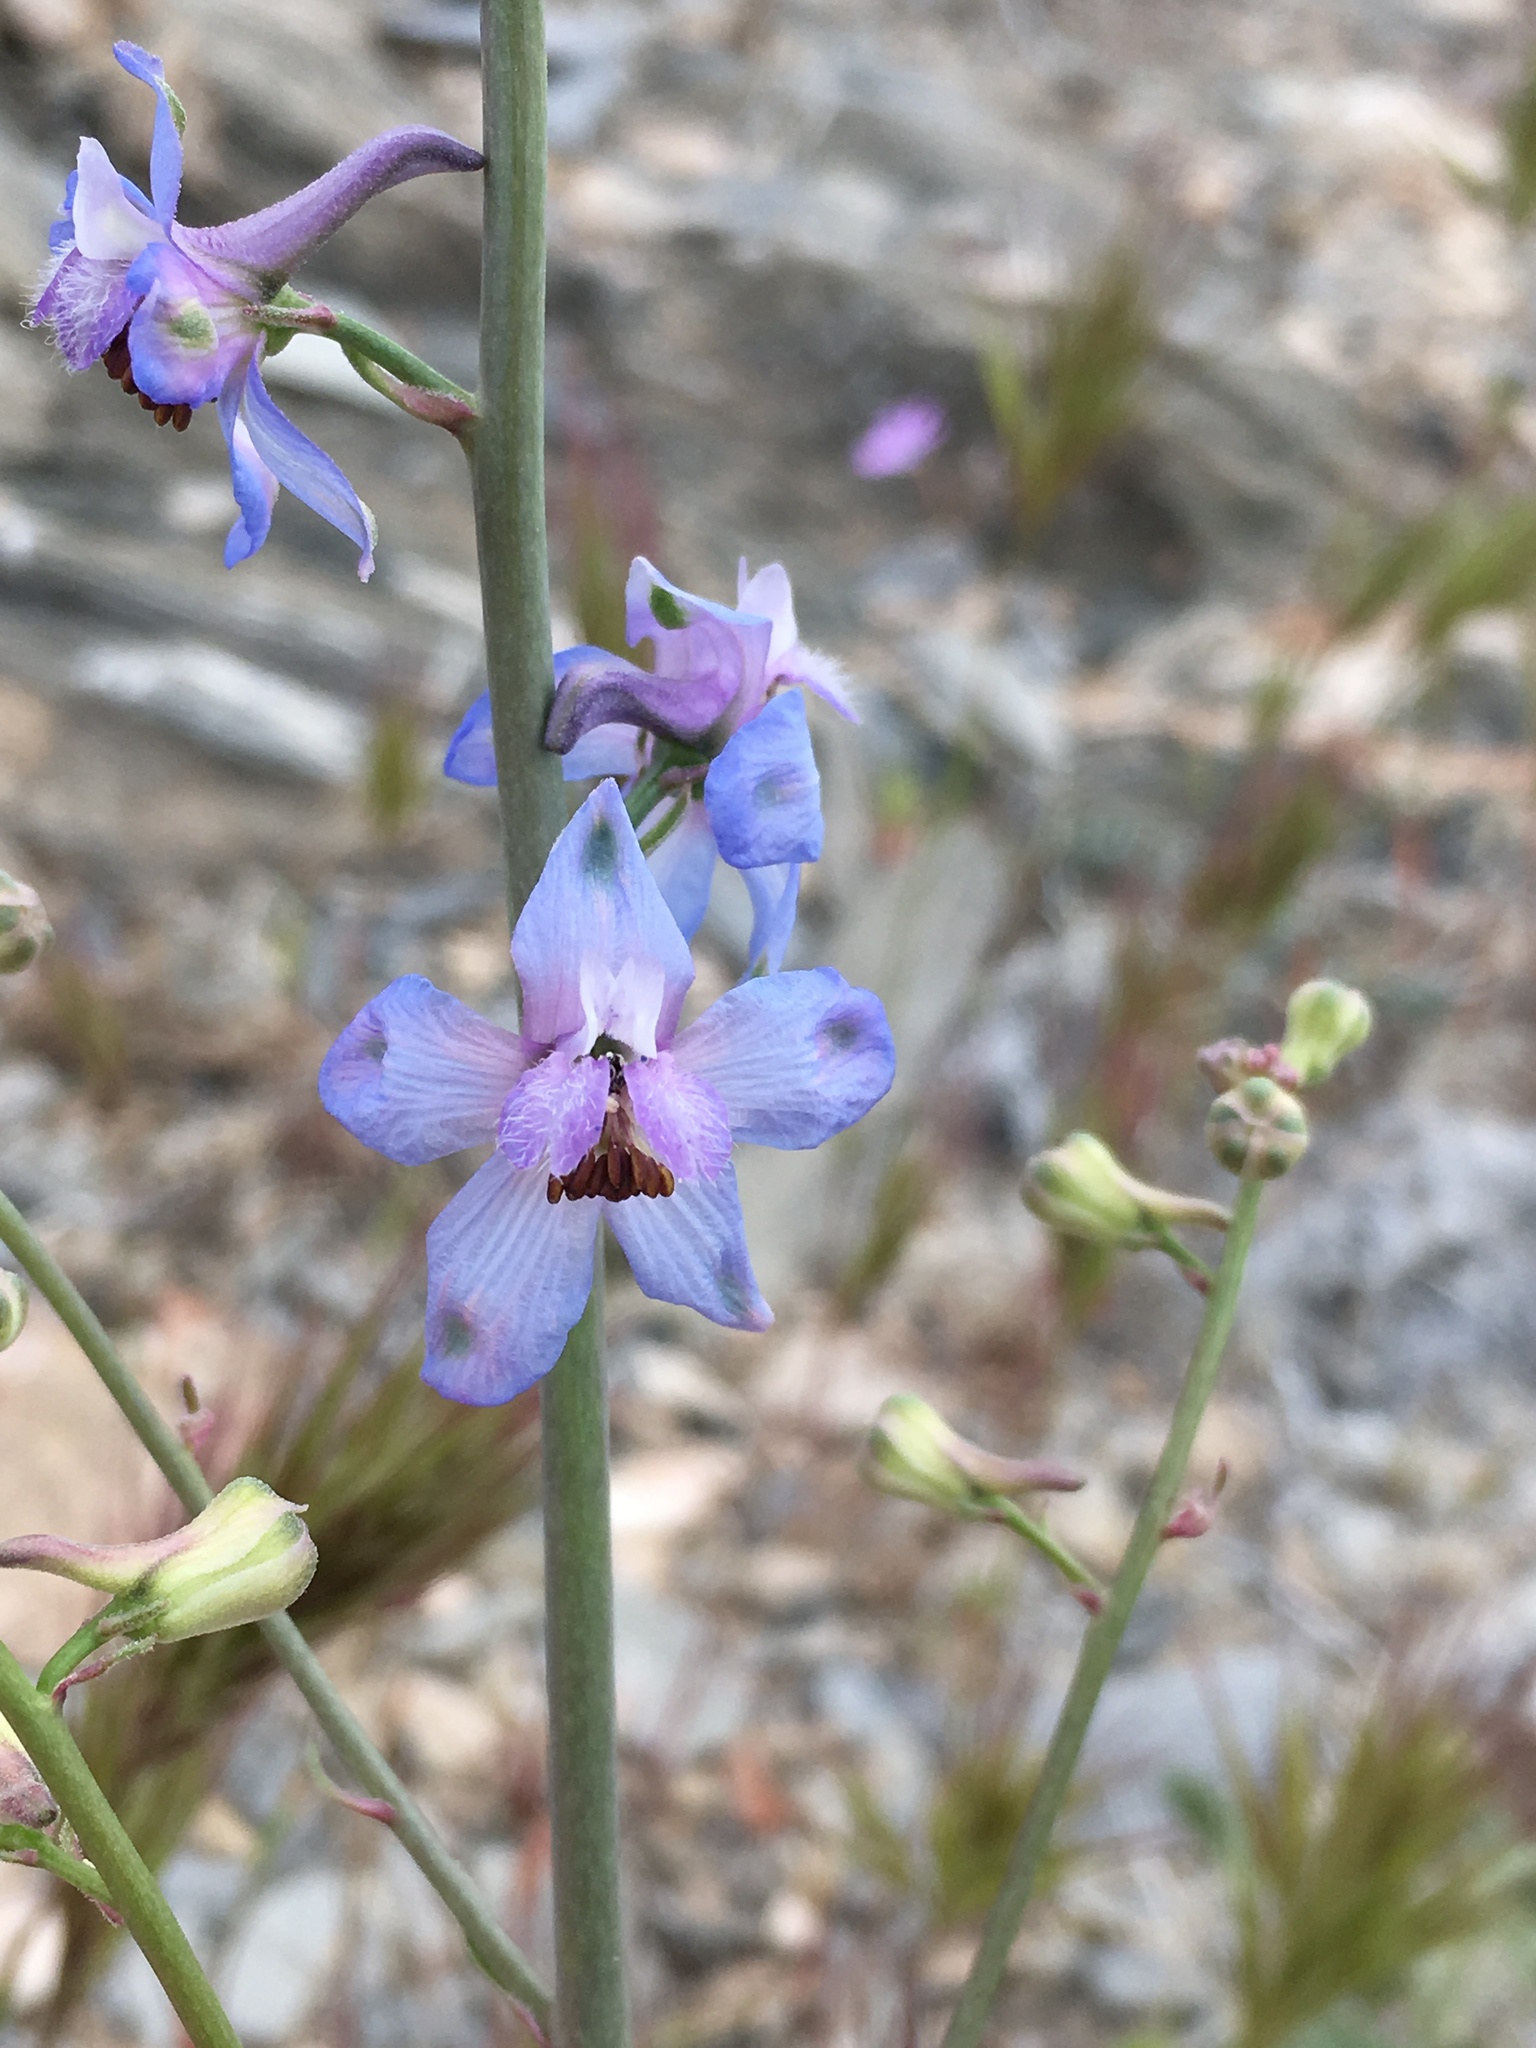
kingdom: Plantae
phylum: Tracheophyta
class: Magnoliopsida
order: Ranunculales
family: Ranunculaceae
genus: Delphinium
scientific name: Delphinium parishii
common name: Apache larkspur
